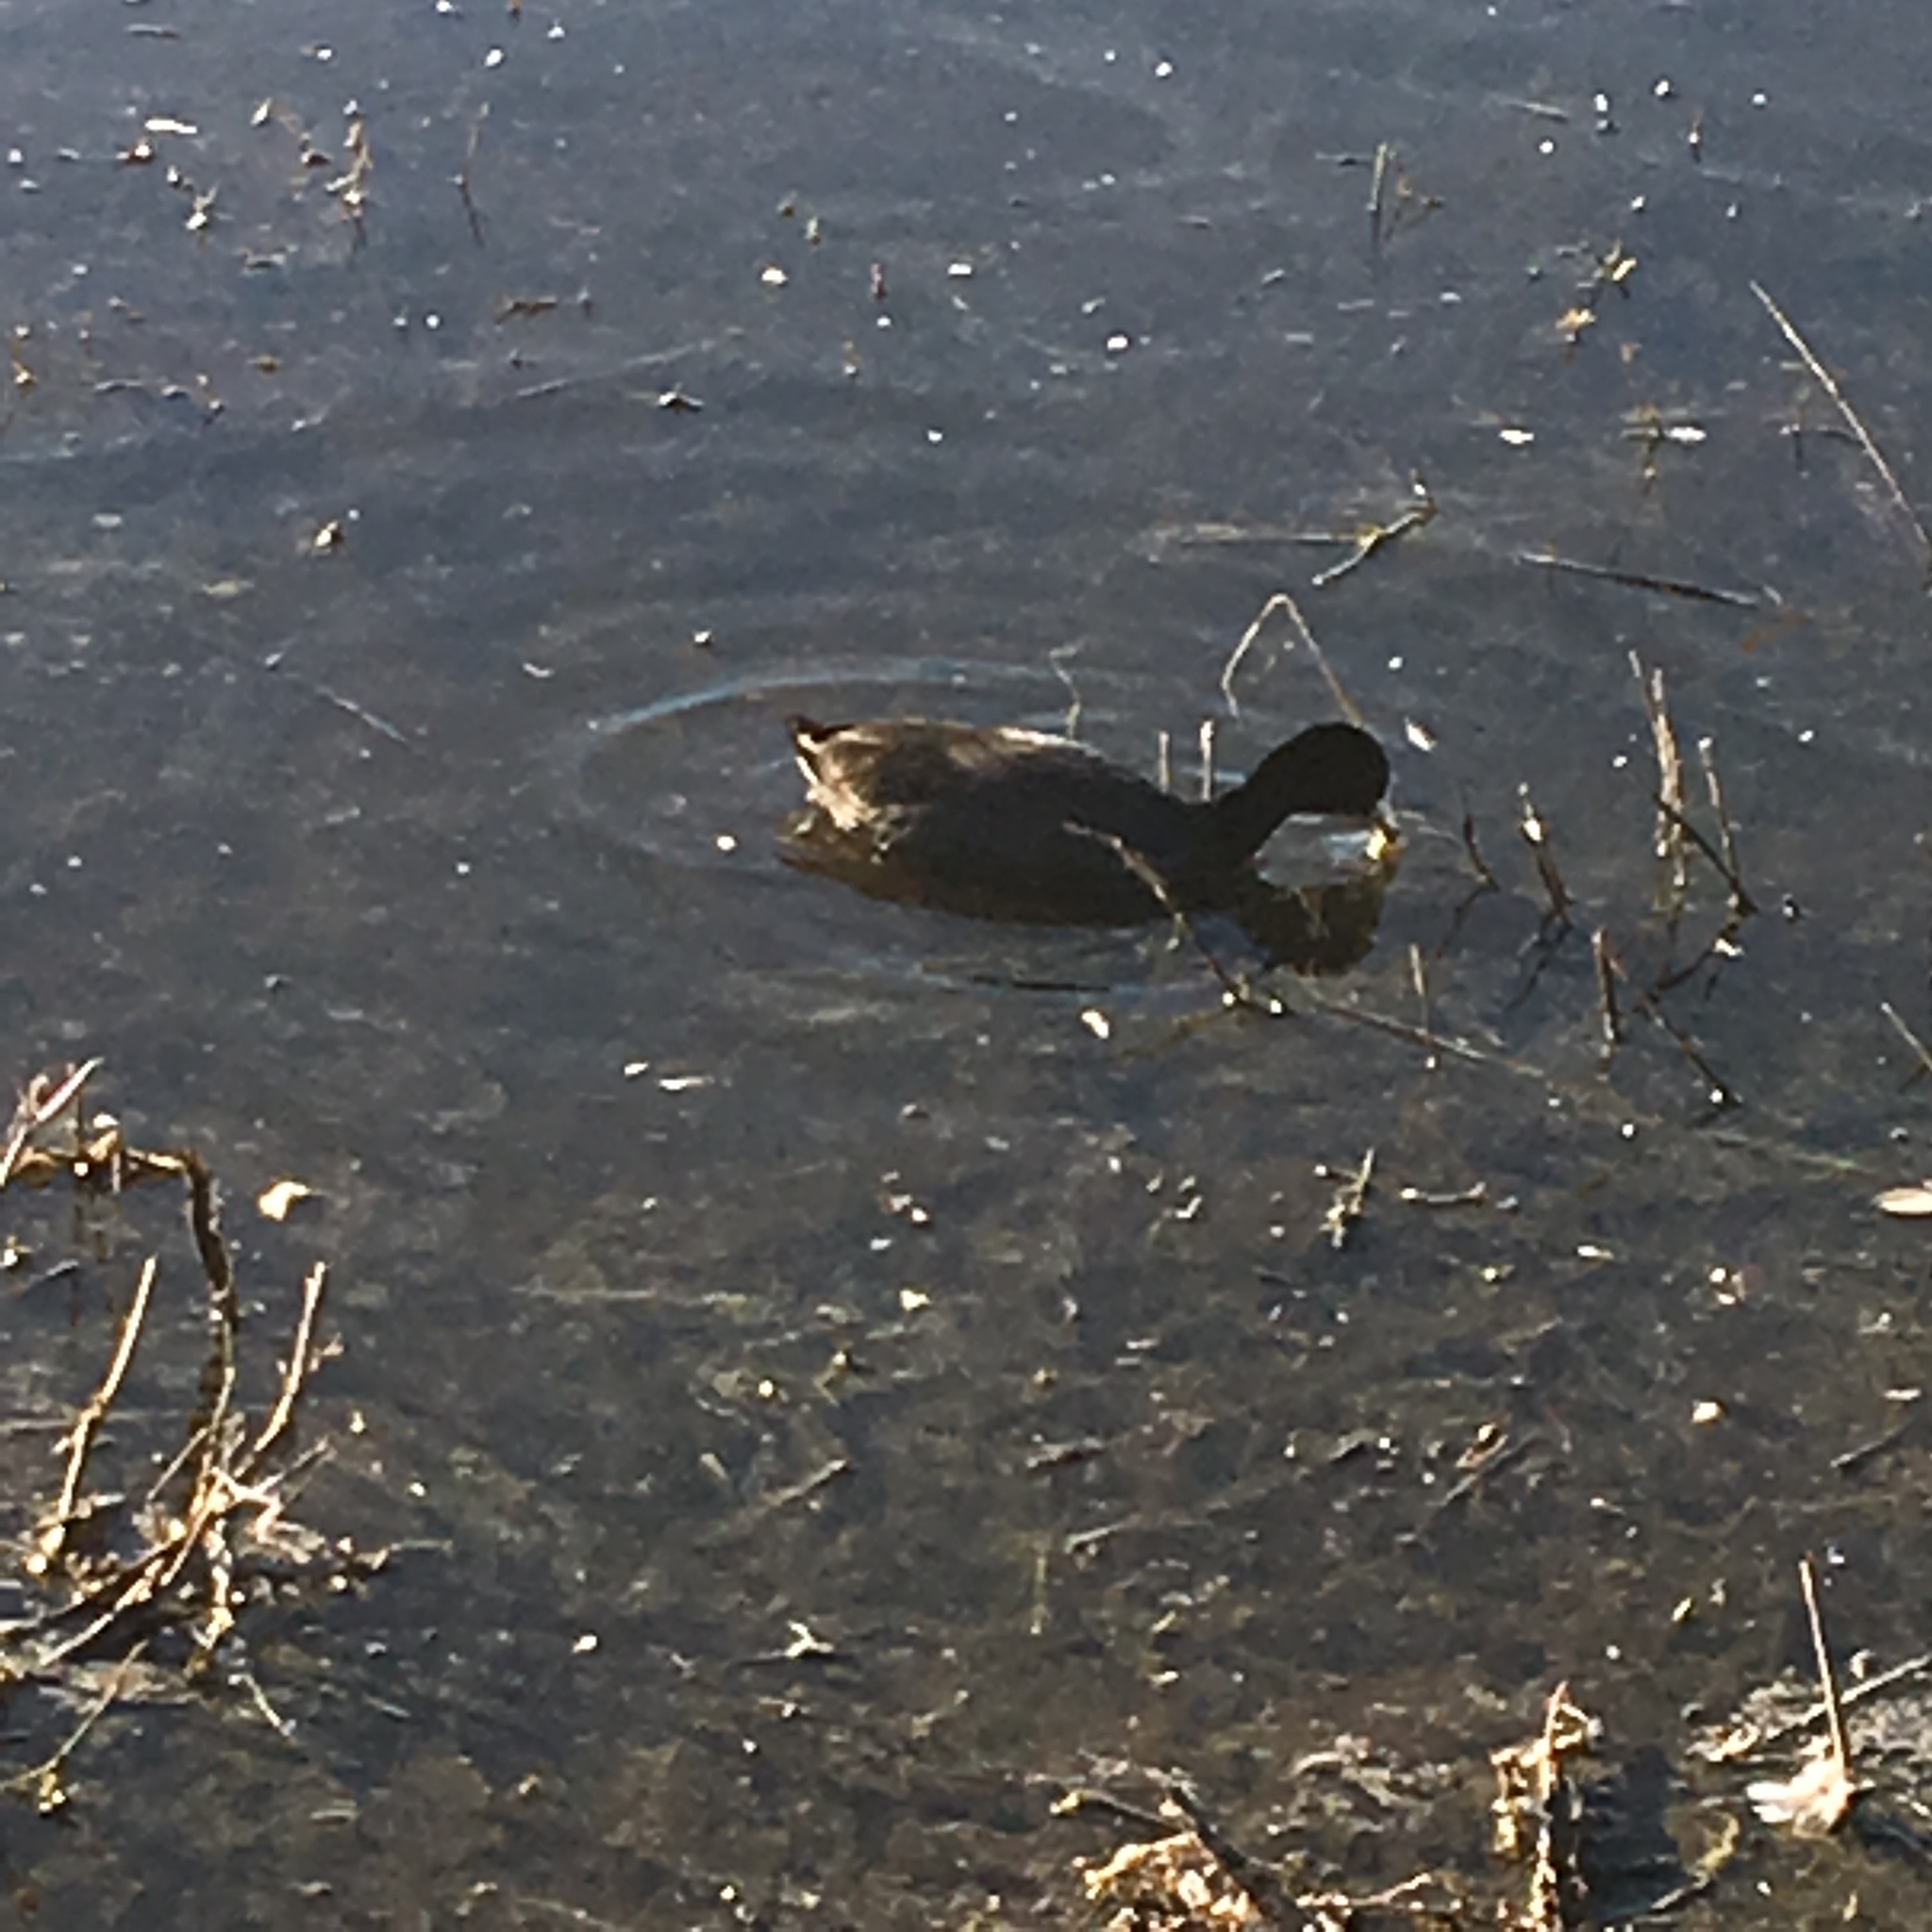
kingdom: Animalia
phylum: Chordata
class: Aves
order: Gruiformes
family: Rallidae
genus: Fulica
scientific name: Fulica americana
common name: American coot
